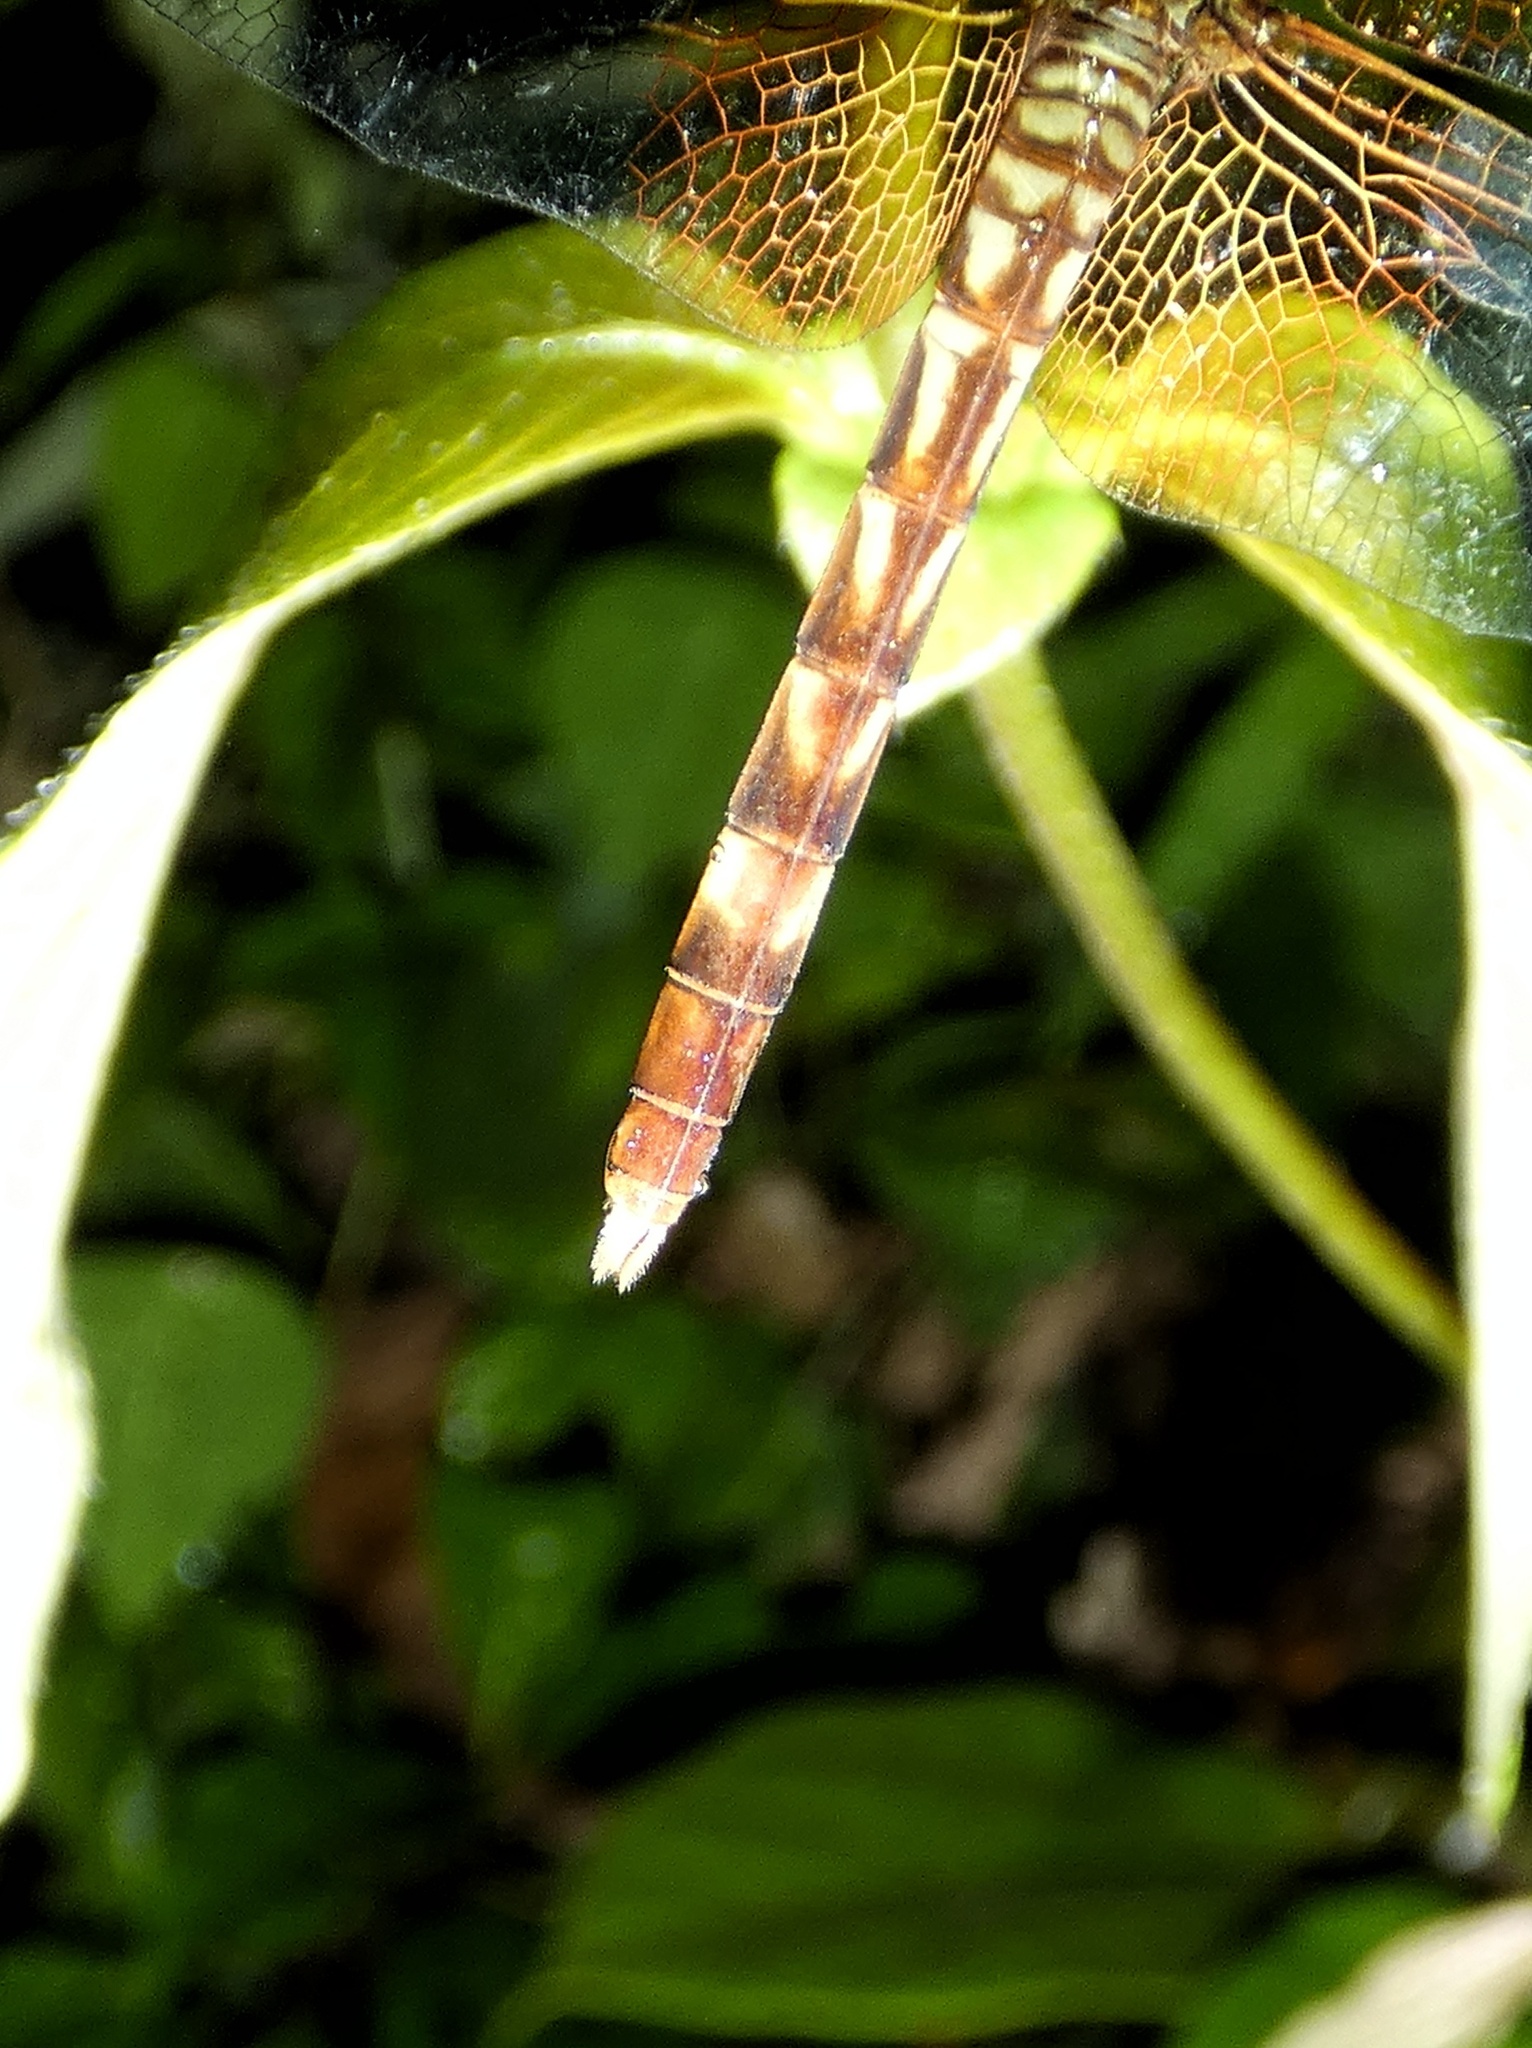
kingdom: Animalia
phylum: Arthropoda
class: Insecta
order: Odonata
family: Libellulidae
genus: Erythrodiplax
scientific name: Erythrodiplax fervida
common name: Red-mantled dragonlet
